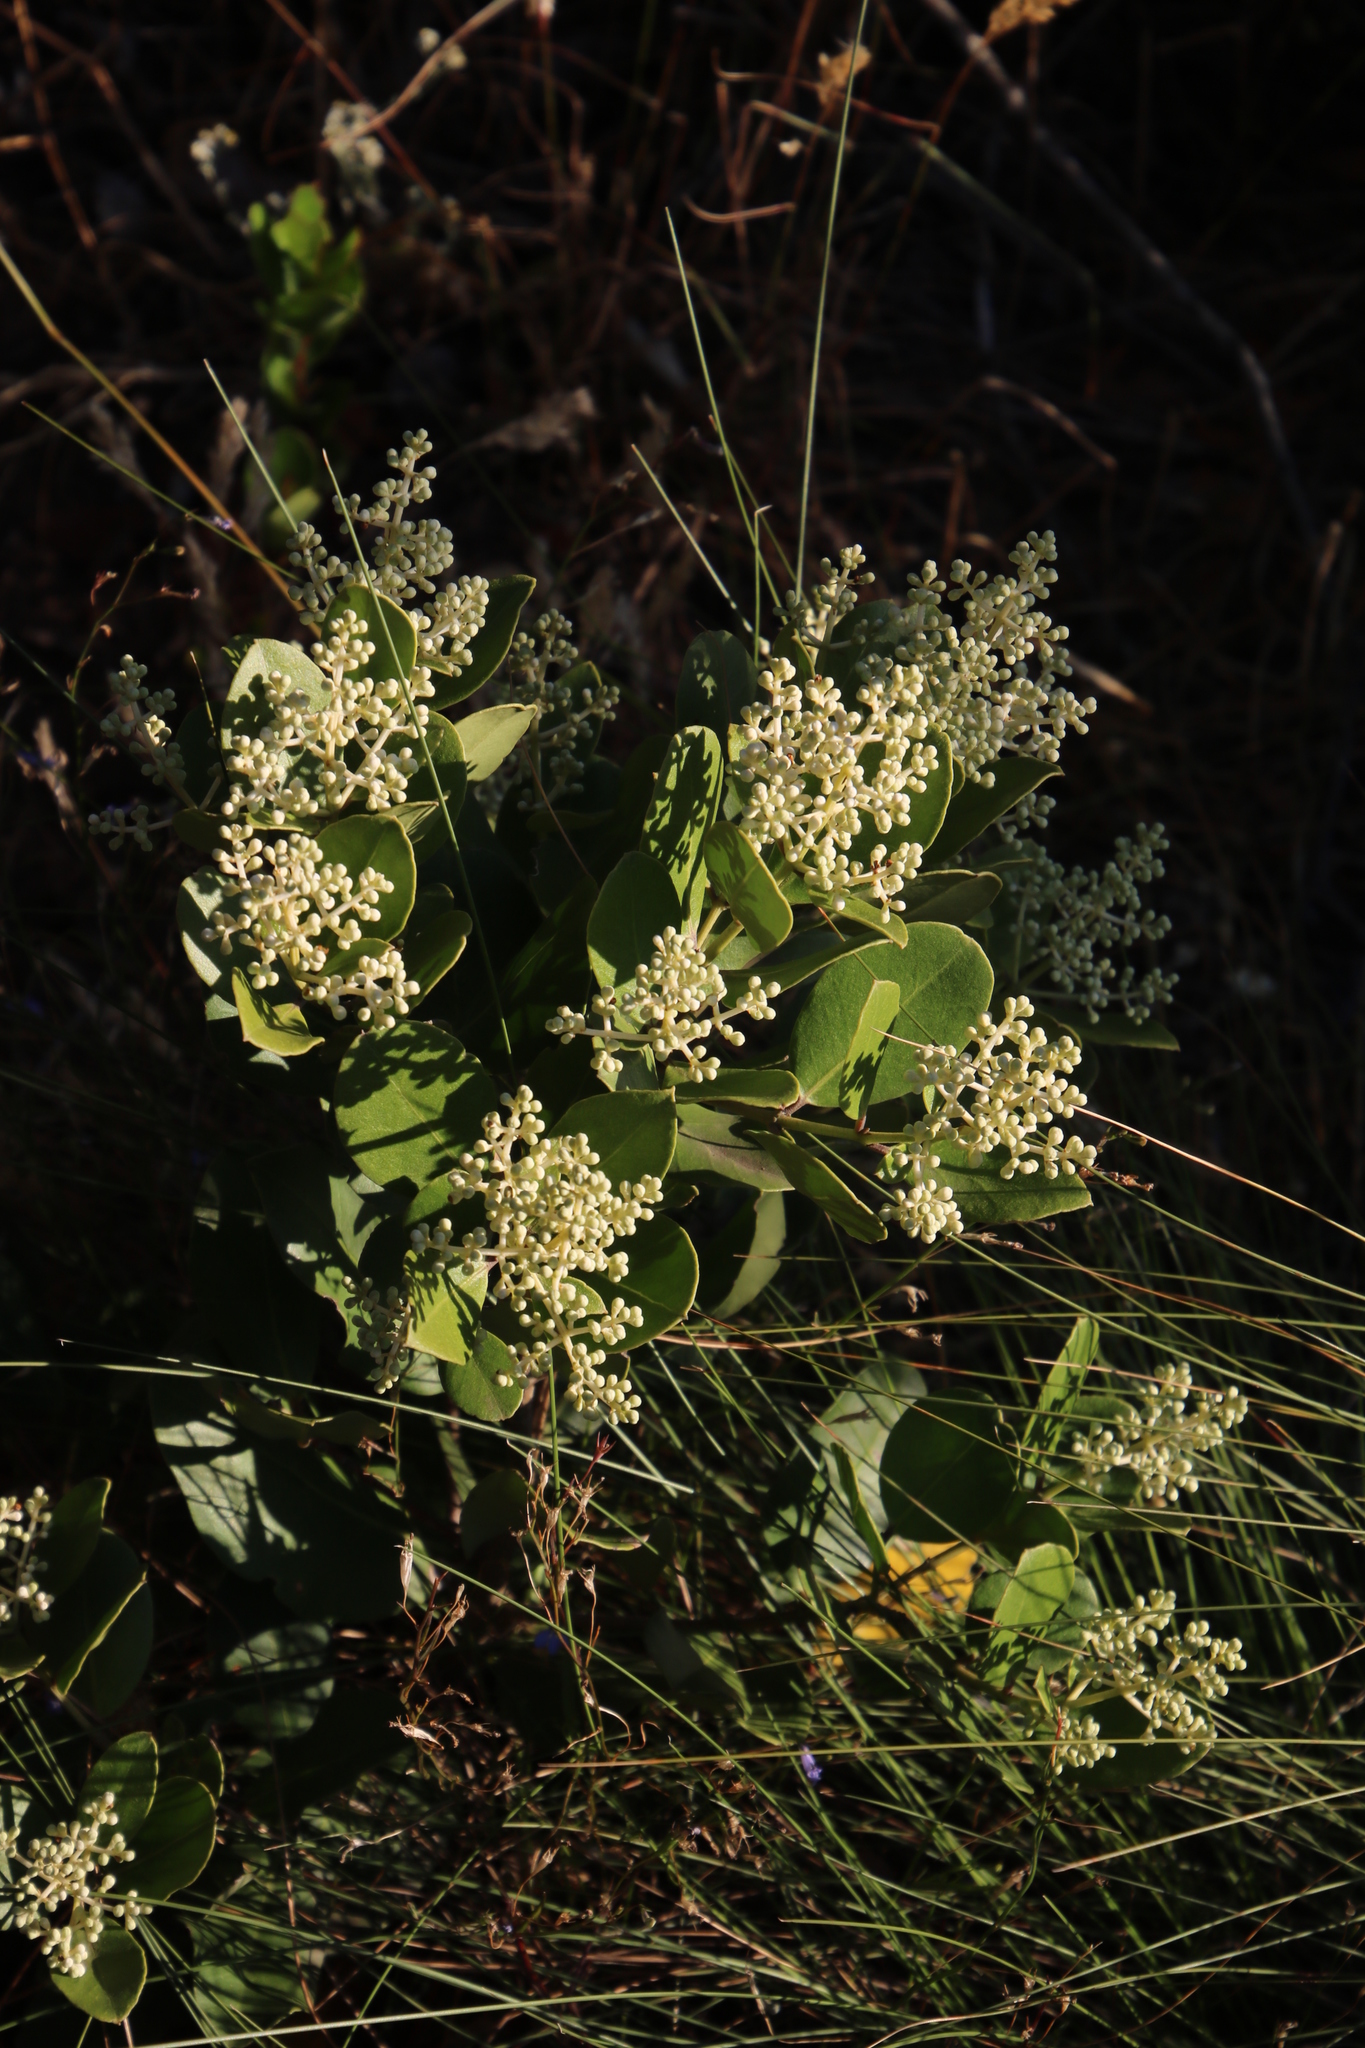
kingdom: Plantae
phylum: Tracheophyta
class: Magnoliopsida
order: Lamiales
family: Oleaceae
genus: Olea
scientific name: Olea capensis
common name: Black ironwood
